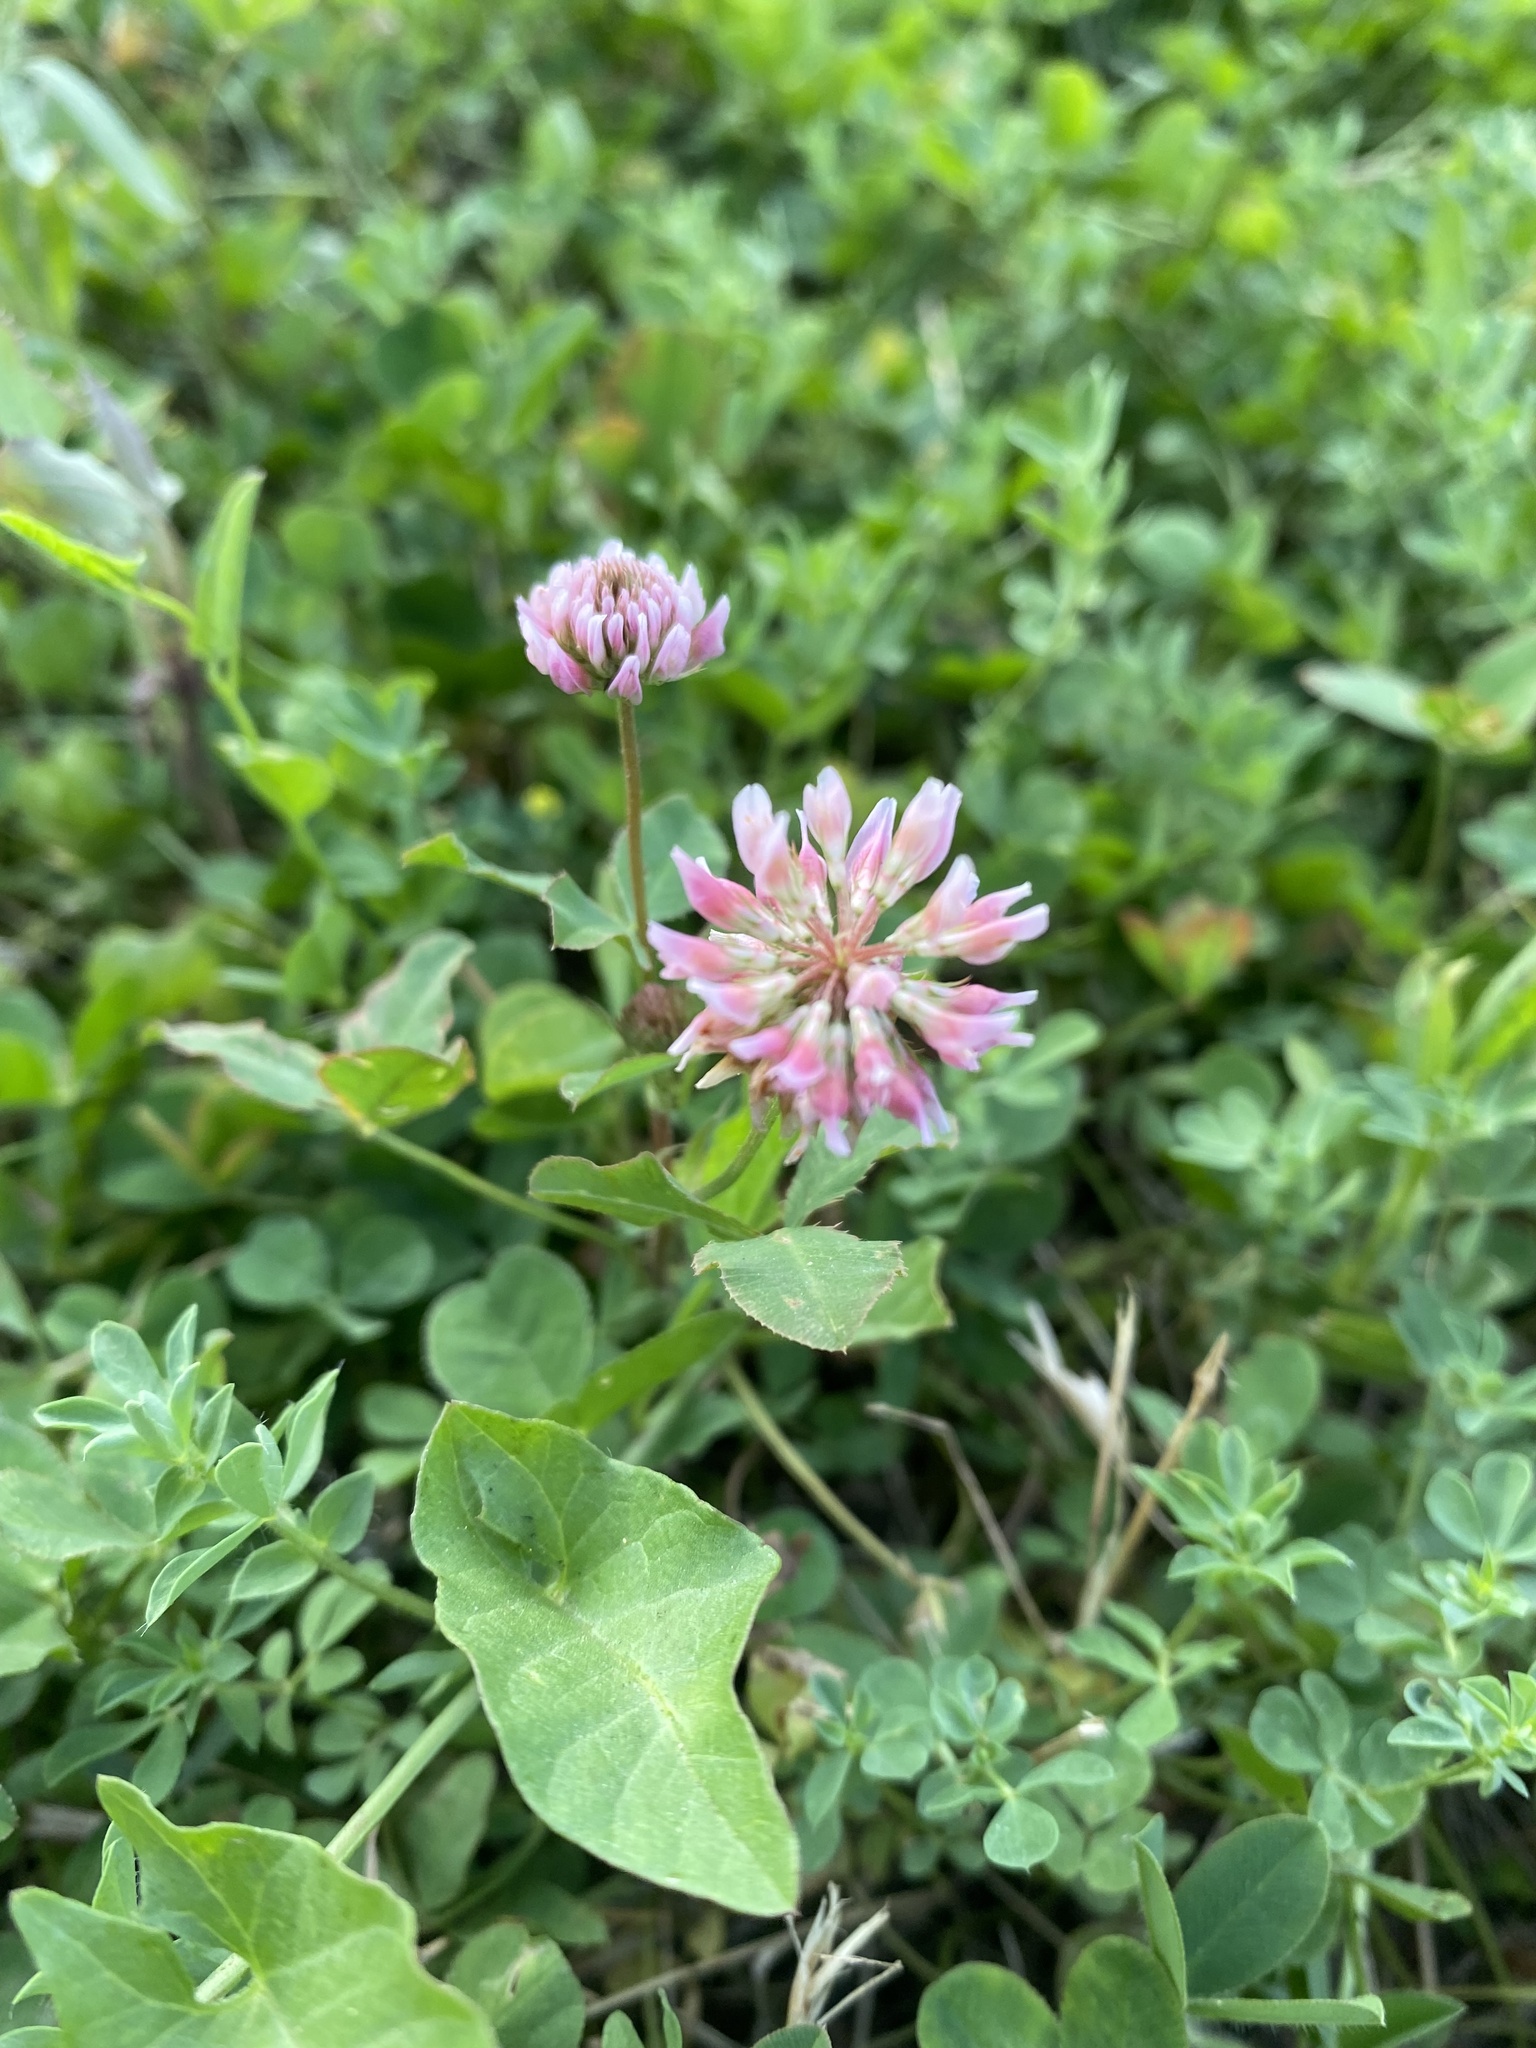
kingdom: Plantae
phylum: Tracheophyta
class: Magnoliopsida
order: Fabales
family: Fabaceae
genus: Trifolium
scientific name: Trifolium hybridum
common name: Alsike clover
